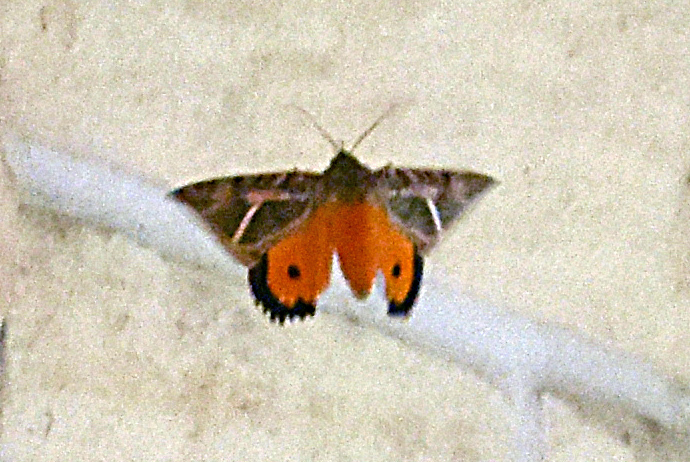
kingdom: Animalia
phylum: Arthropoda
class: Insecta
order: Lepidoptera
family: Erebidae
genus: Eudocima
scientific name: Eudocima apta
